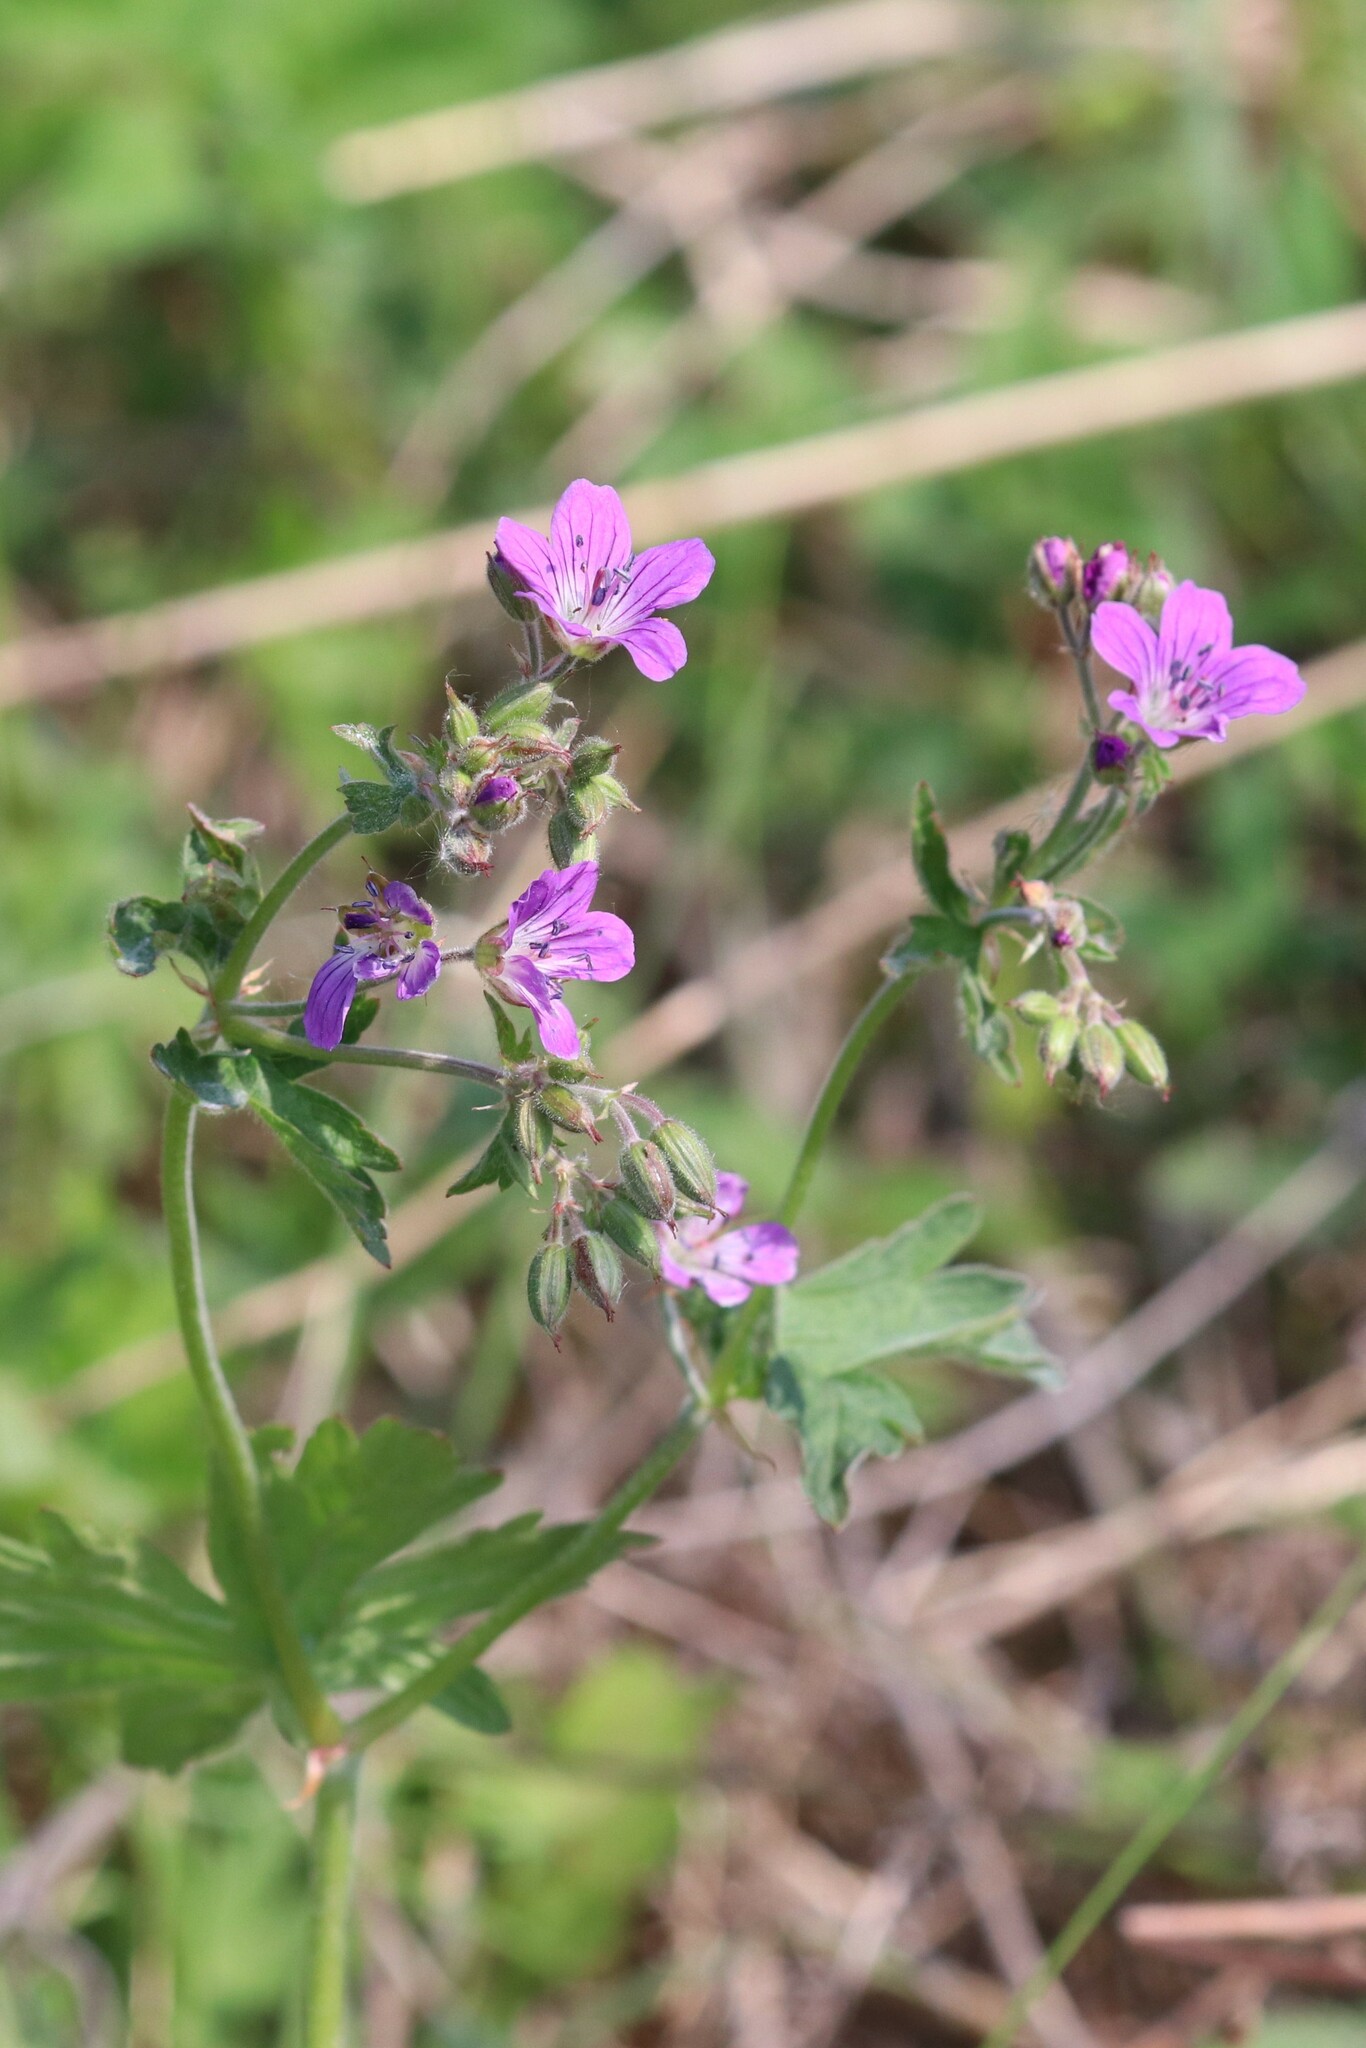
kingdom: Plantae
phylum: Tracheophyta
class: Magnoliopsida
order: Geraniales
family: Geraniaceae
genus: Geranium
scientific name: Geranium sylvaticum
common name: Wood crane's-bill
